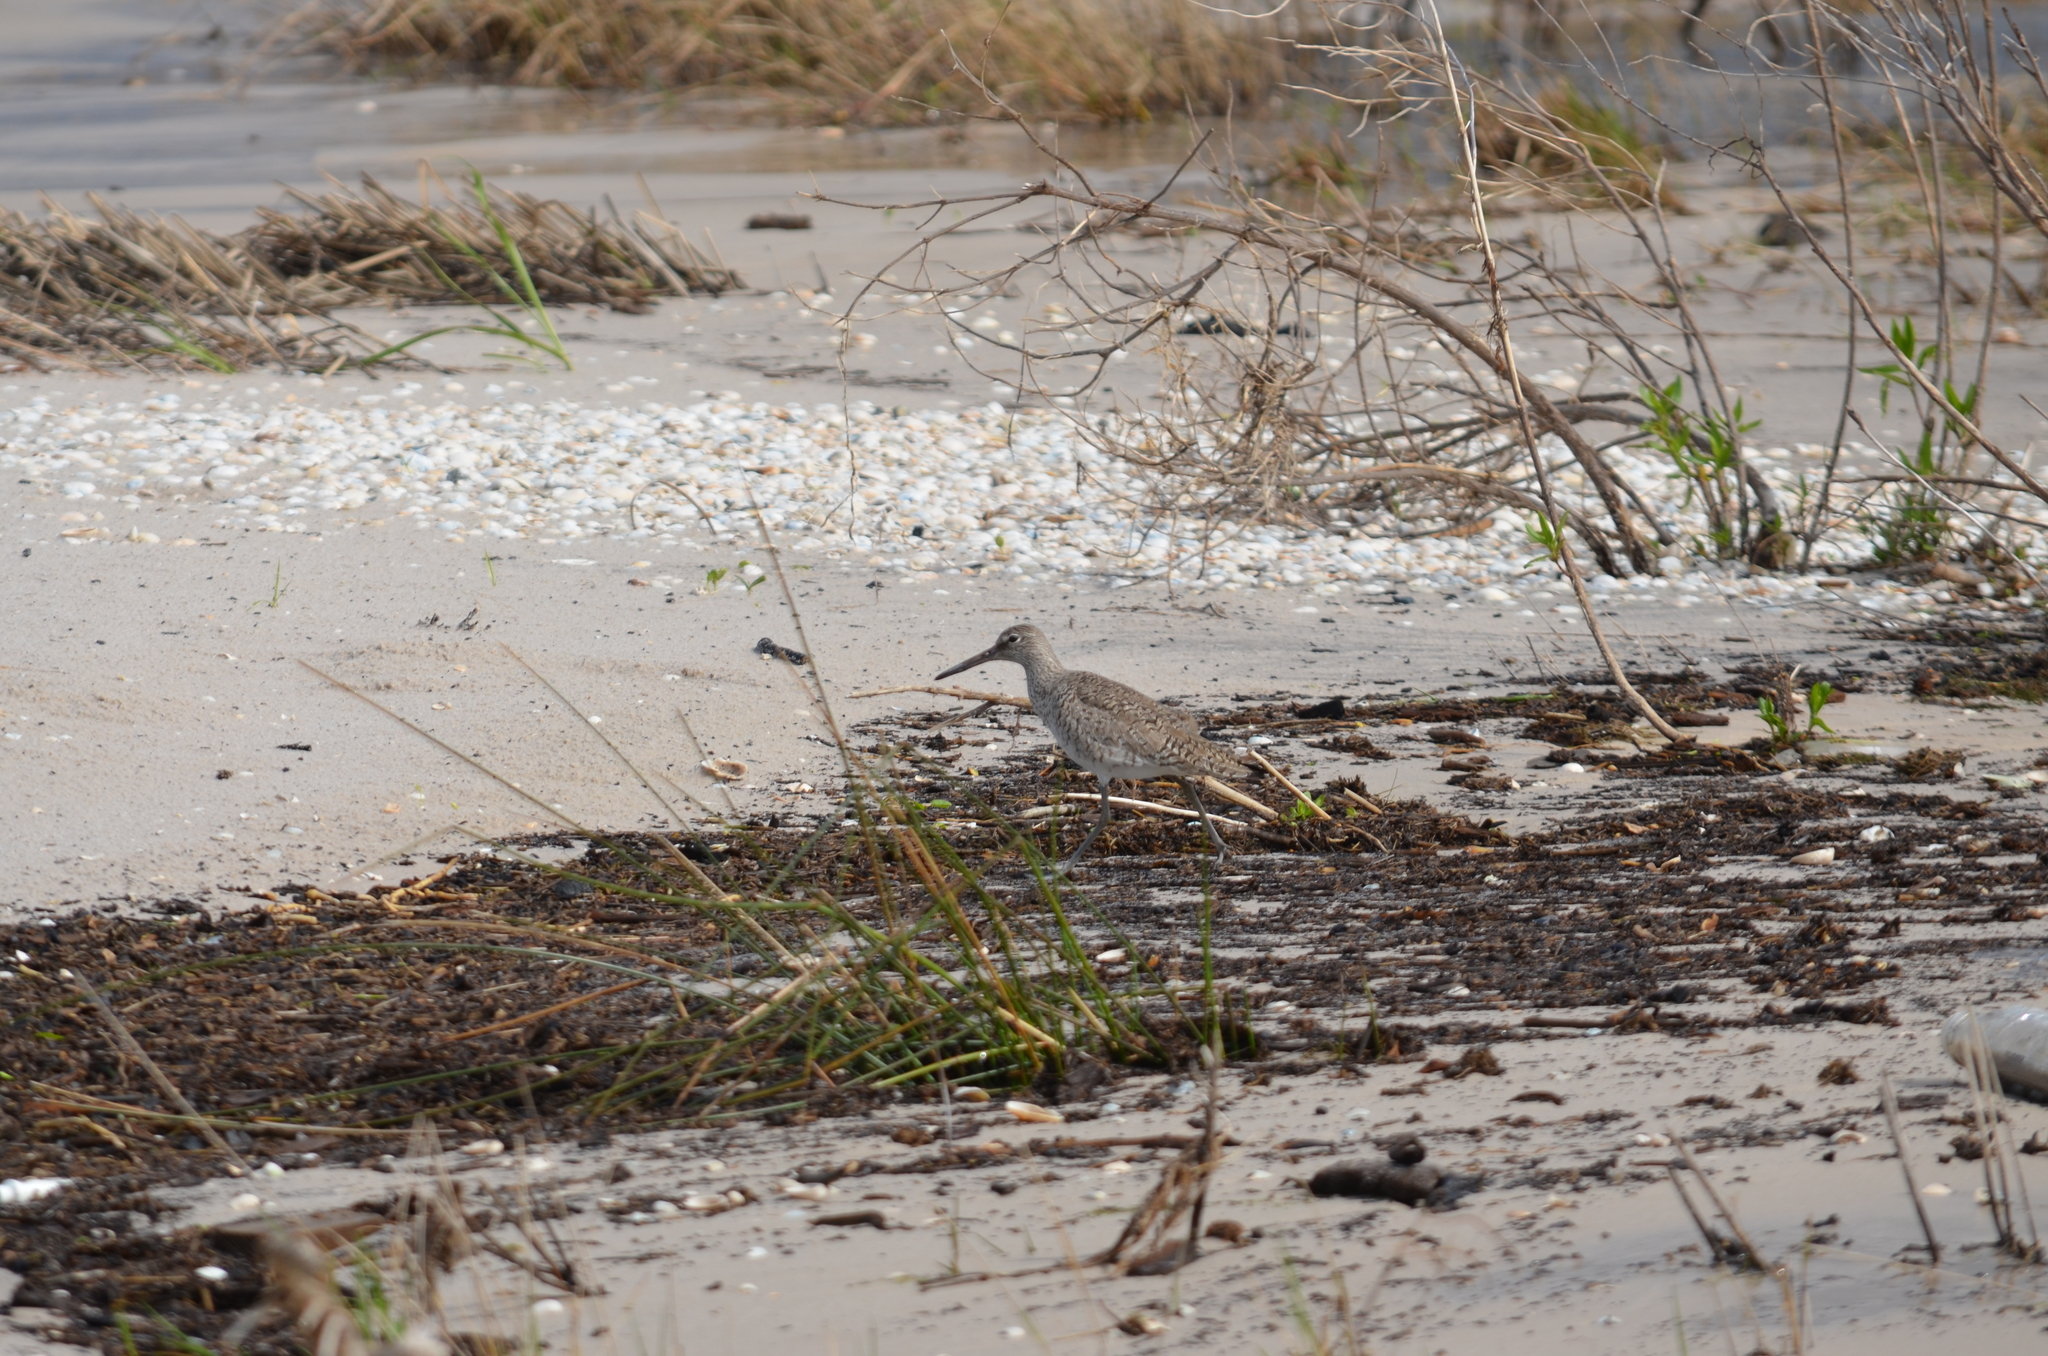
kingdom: Animalia
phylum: Chordata
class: Aves
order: Charadriiformes
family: Scolopacidae
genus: Tringa
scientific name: Tringa semipalmata
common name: Willet
